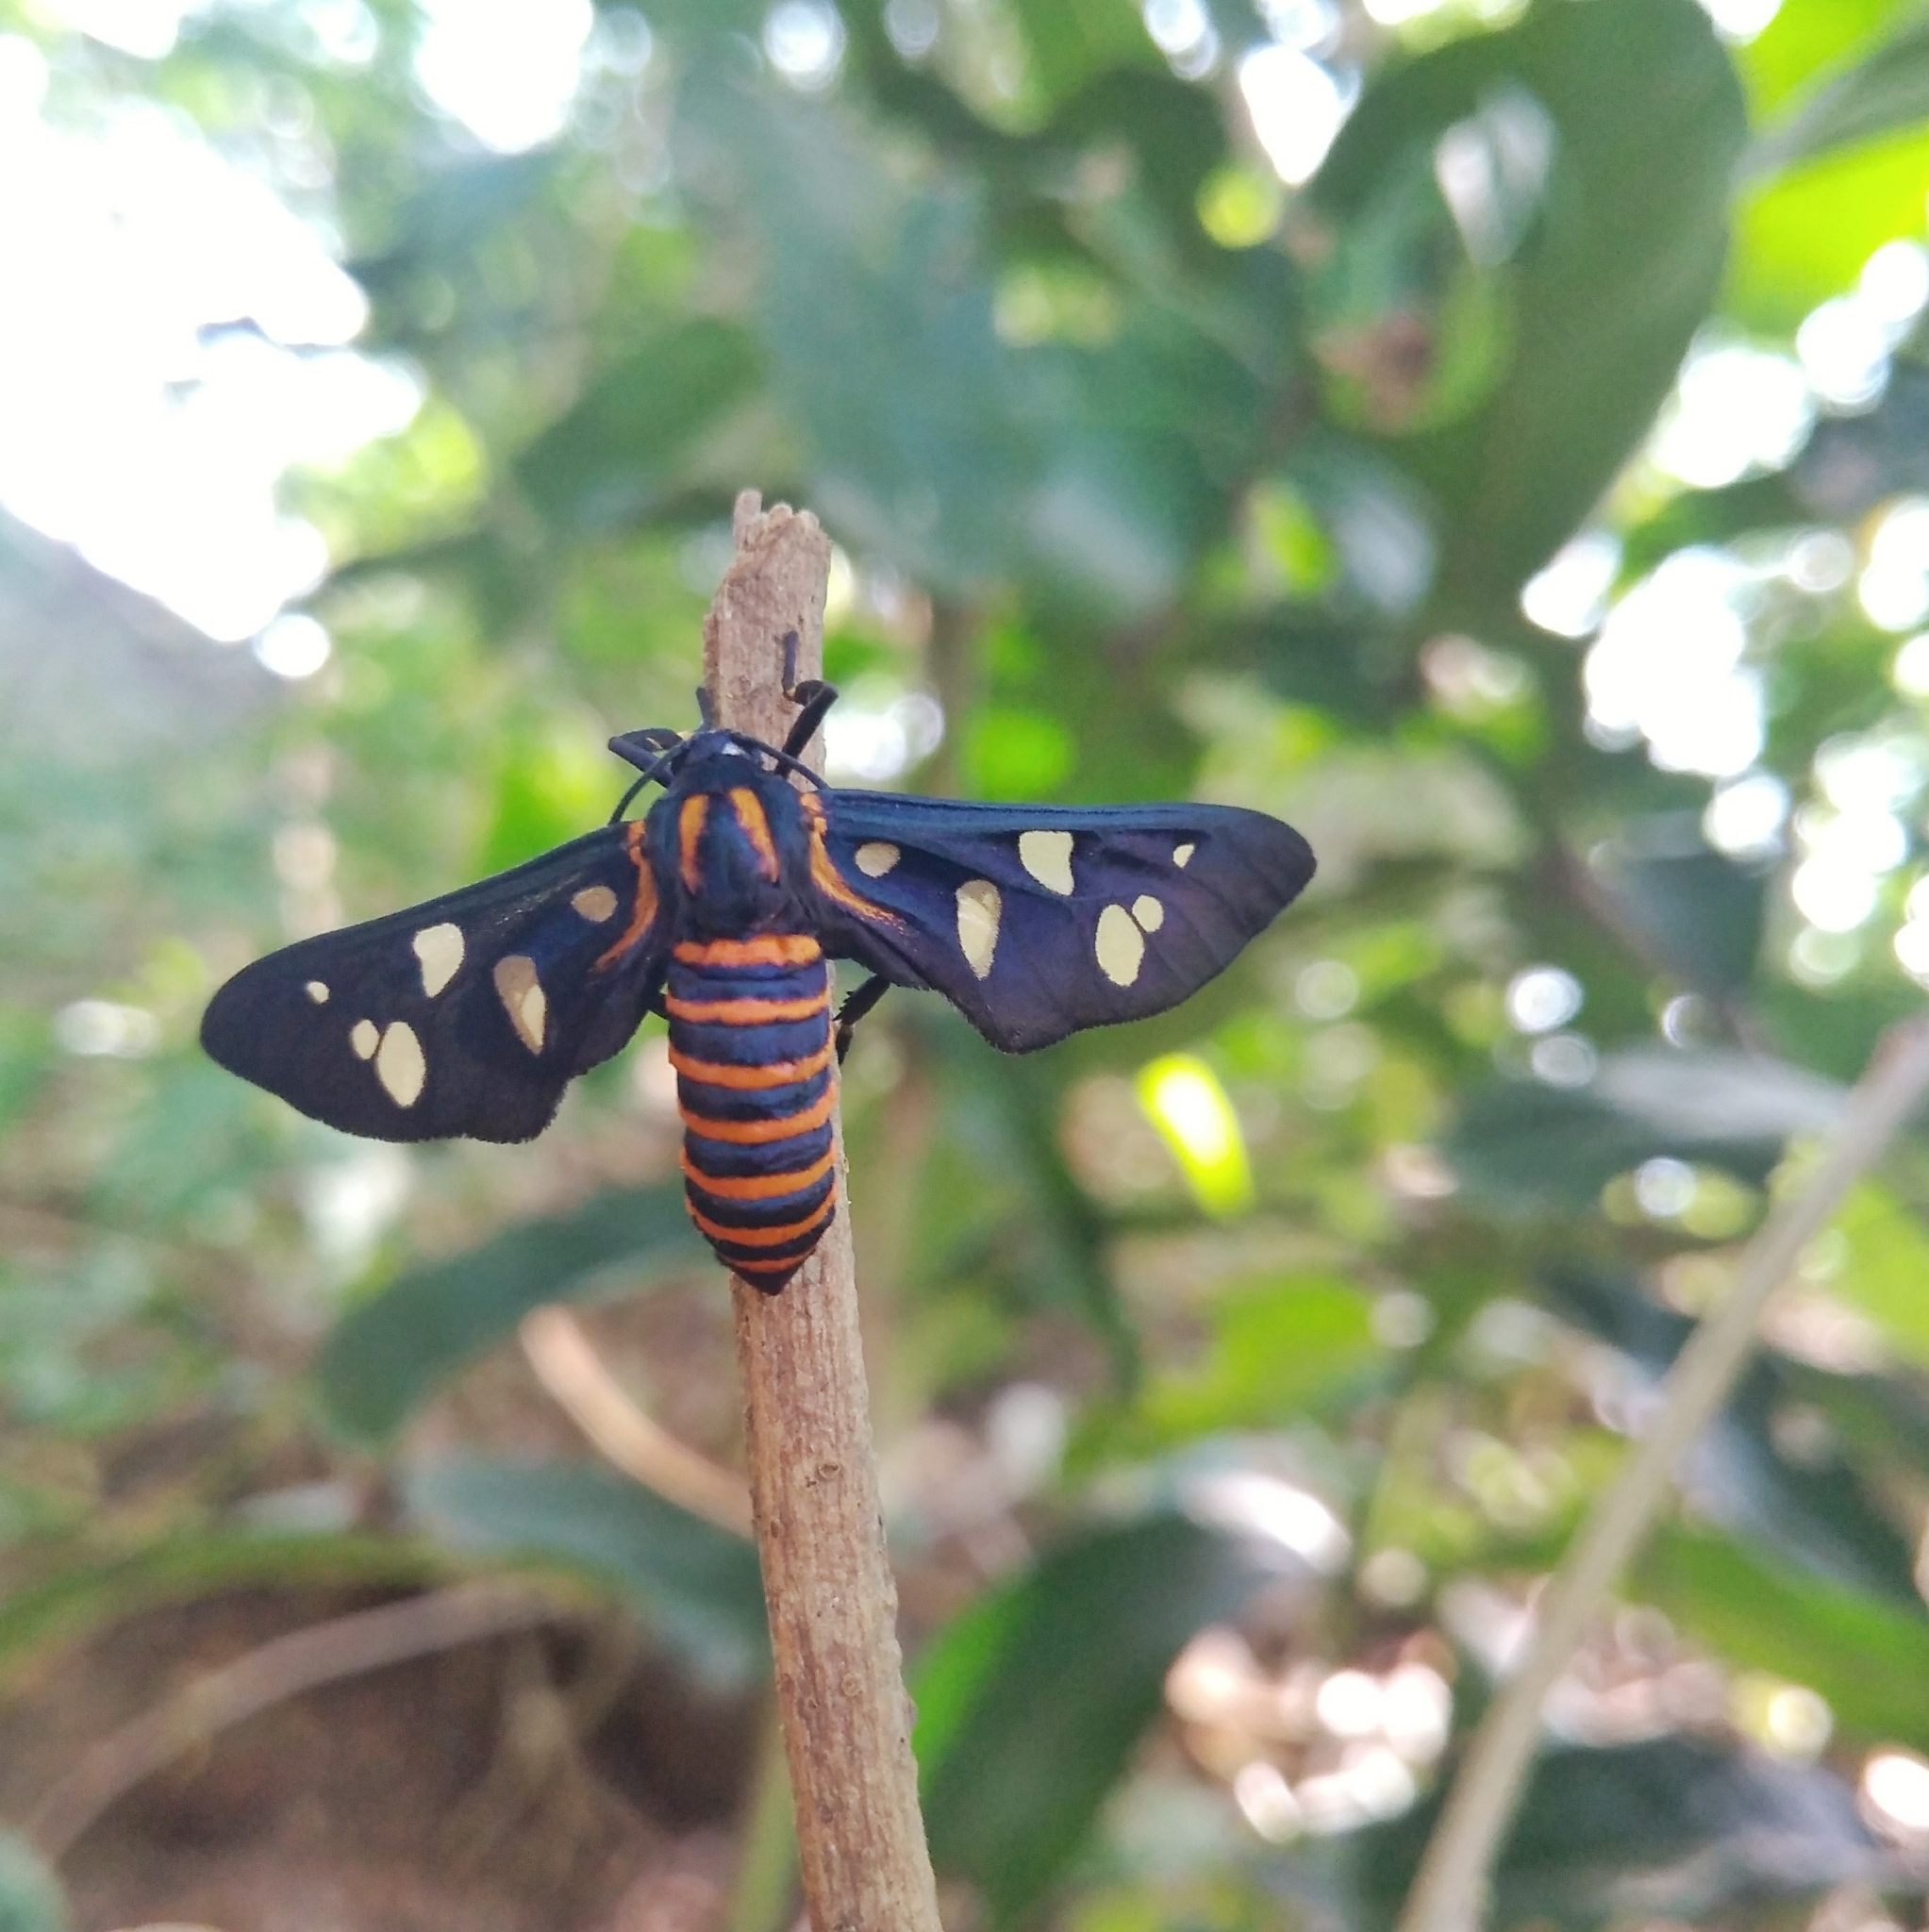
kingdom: Animalia
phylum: Arthropoda
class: Insecta
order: Lepidoptera
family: Erebidae
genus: Amata
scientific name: Amata passalis
